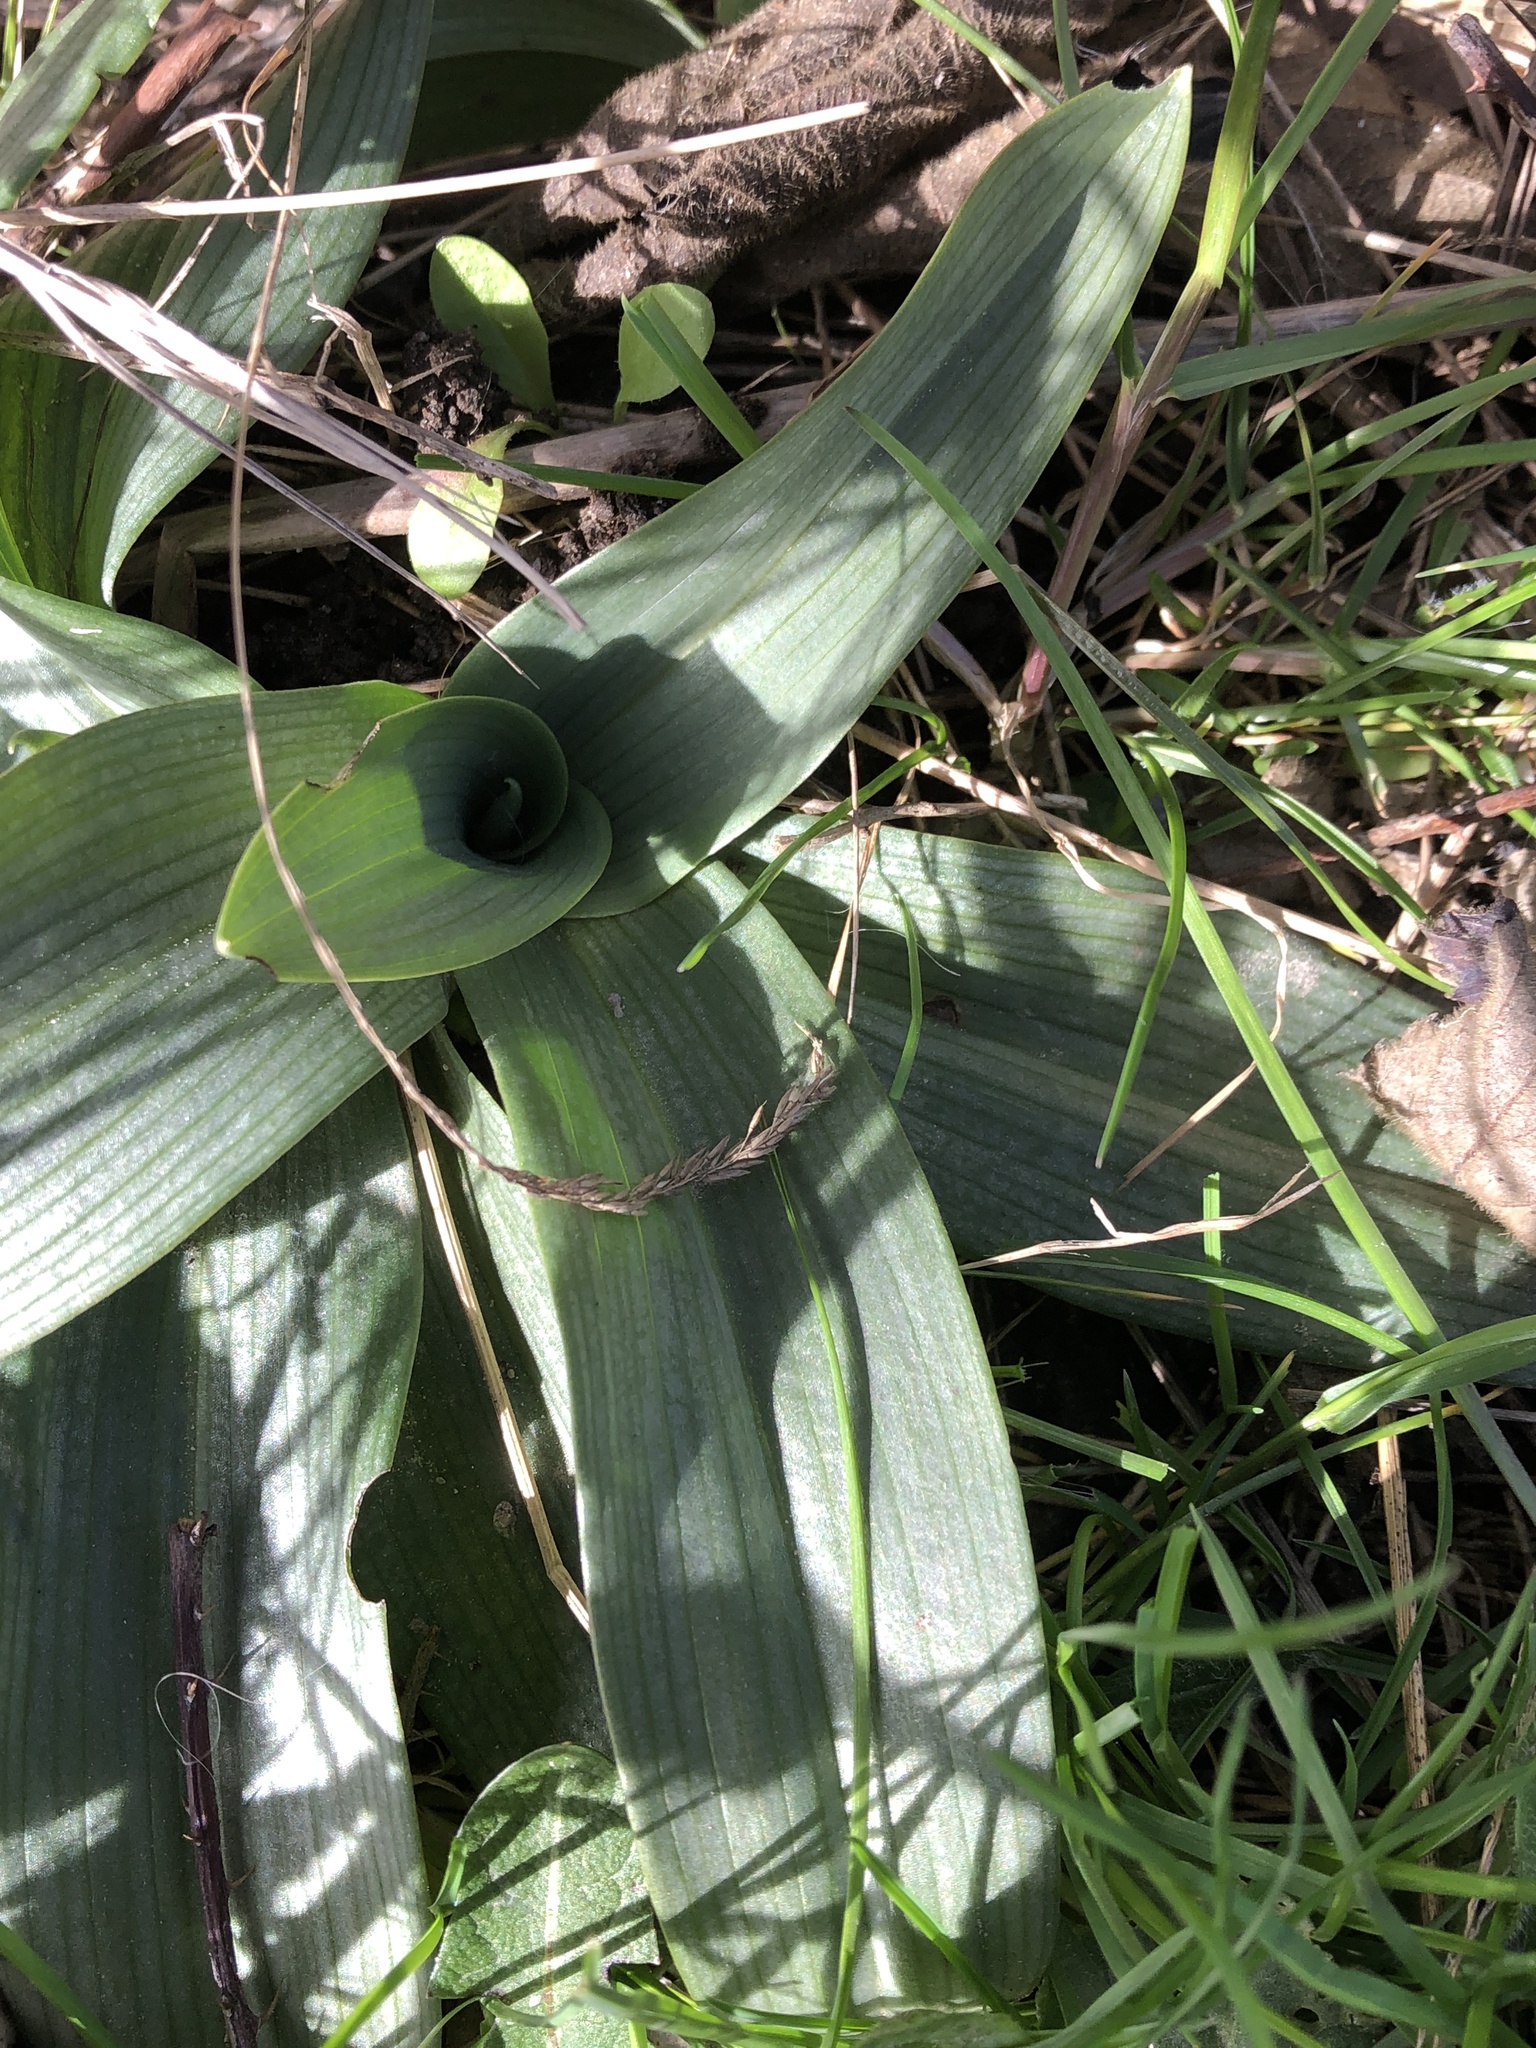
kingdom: Plantae
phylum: Tracheophyta
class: Liliopsida
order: Asparagales
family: Orchidaceae
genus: Ophrys
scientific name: Ophrys apifera
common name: Bee orchid
